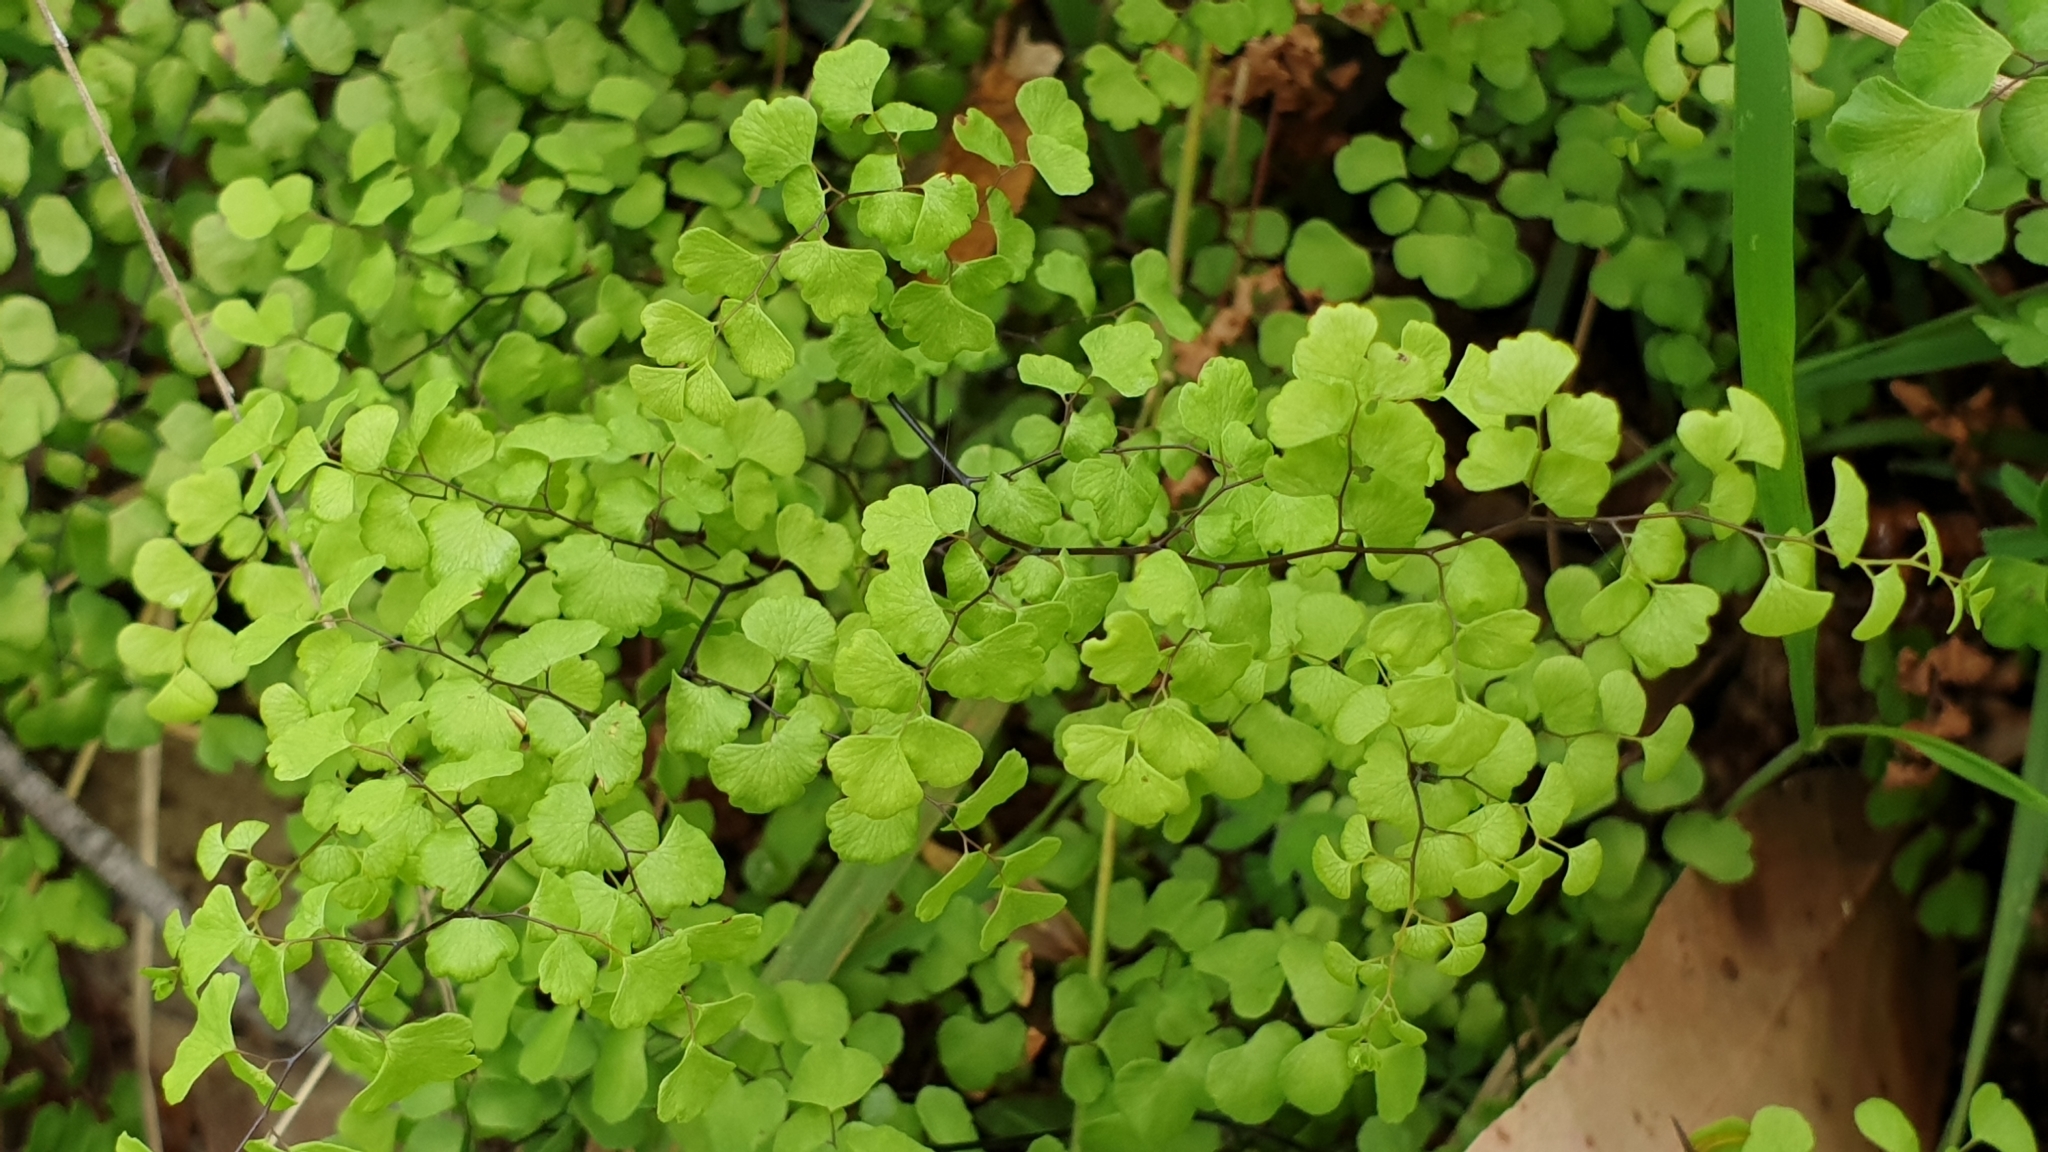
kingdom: Plantae
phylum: Tracheophyta
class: Polypodiopsida
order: Polypodiales
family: Pteridaceae
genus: Adiantum
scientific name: Adiantum aethiopicum
